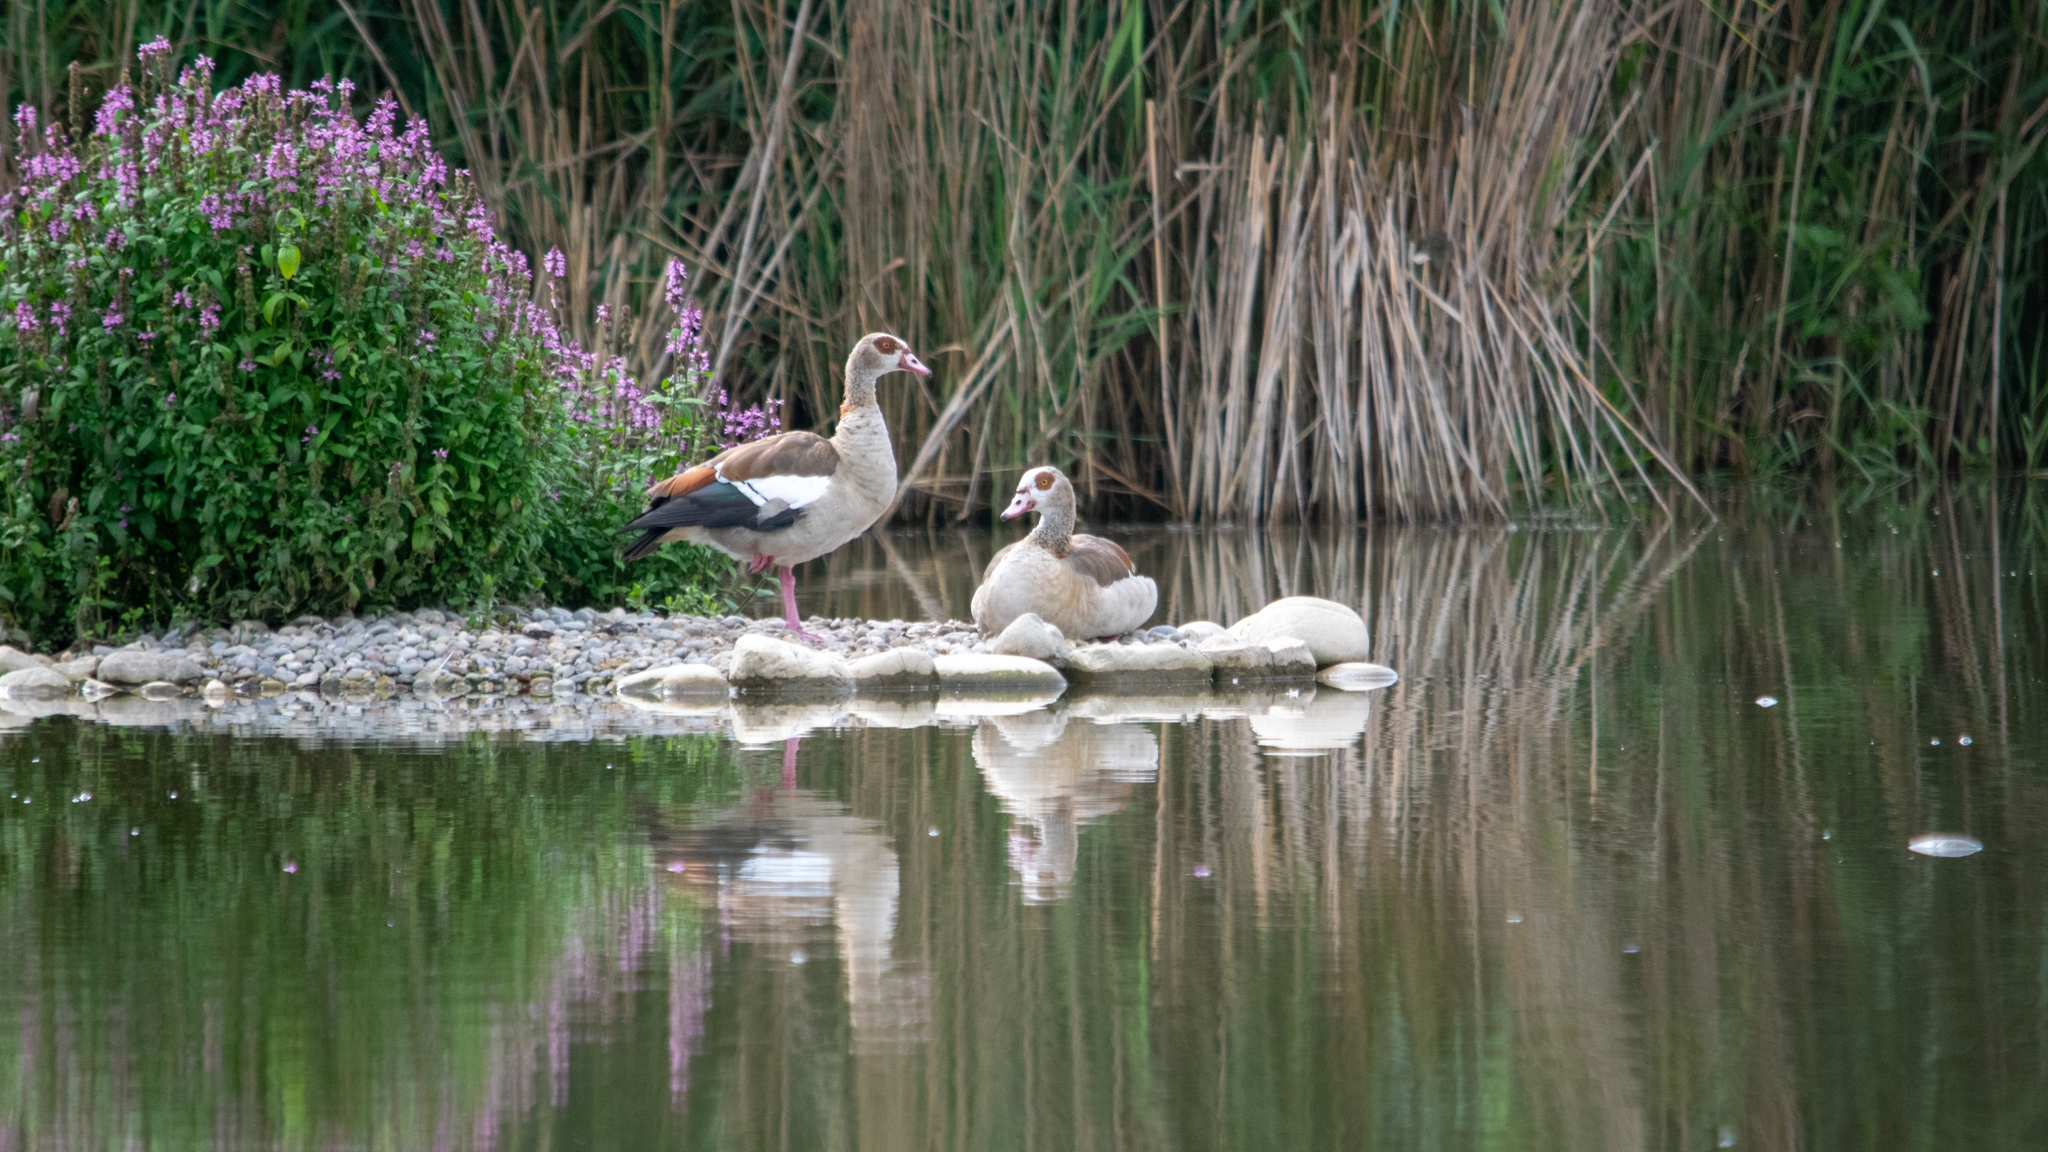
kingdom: Animalia
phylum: Chordata
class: Aves
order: Anseriformes
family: Anatidae
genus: Alopochen
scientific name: Alopochen aegyptiaca
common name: Egyptian goose
